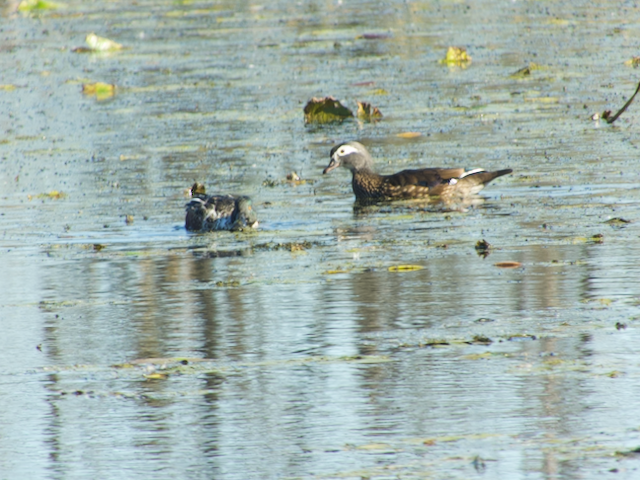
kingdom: Animalia
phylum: Chordata
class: Aves
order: Anseriformes
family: Anatidae
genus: Aix
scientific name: Aix sponsa
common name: Wood duck
